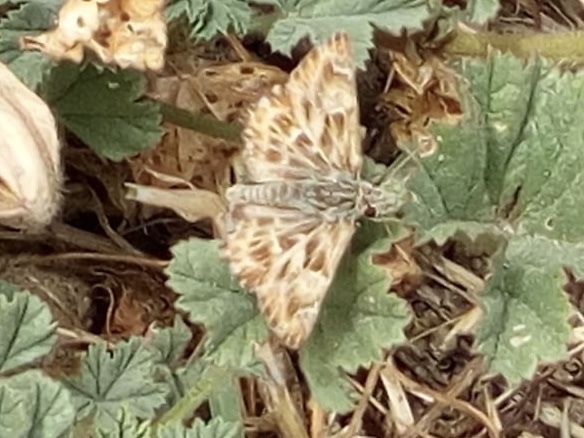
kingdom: Animalia
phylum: Arthropoda
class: Insecta
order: Lepidoptera
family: Hesperiidae
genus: Carcharodus
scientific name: Carcharodus alceae
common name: Mallow skipper
